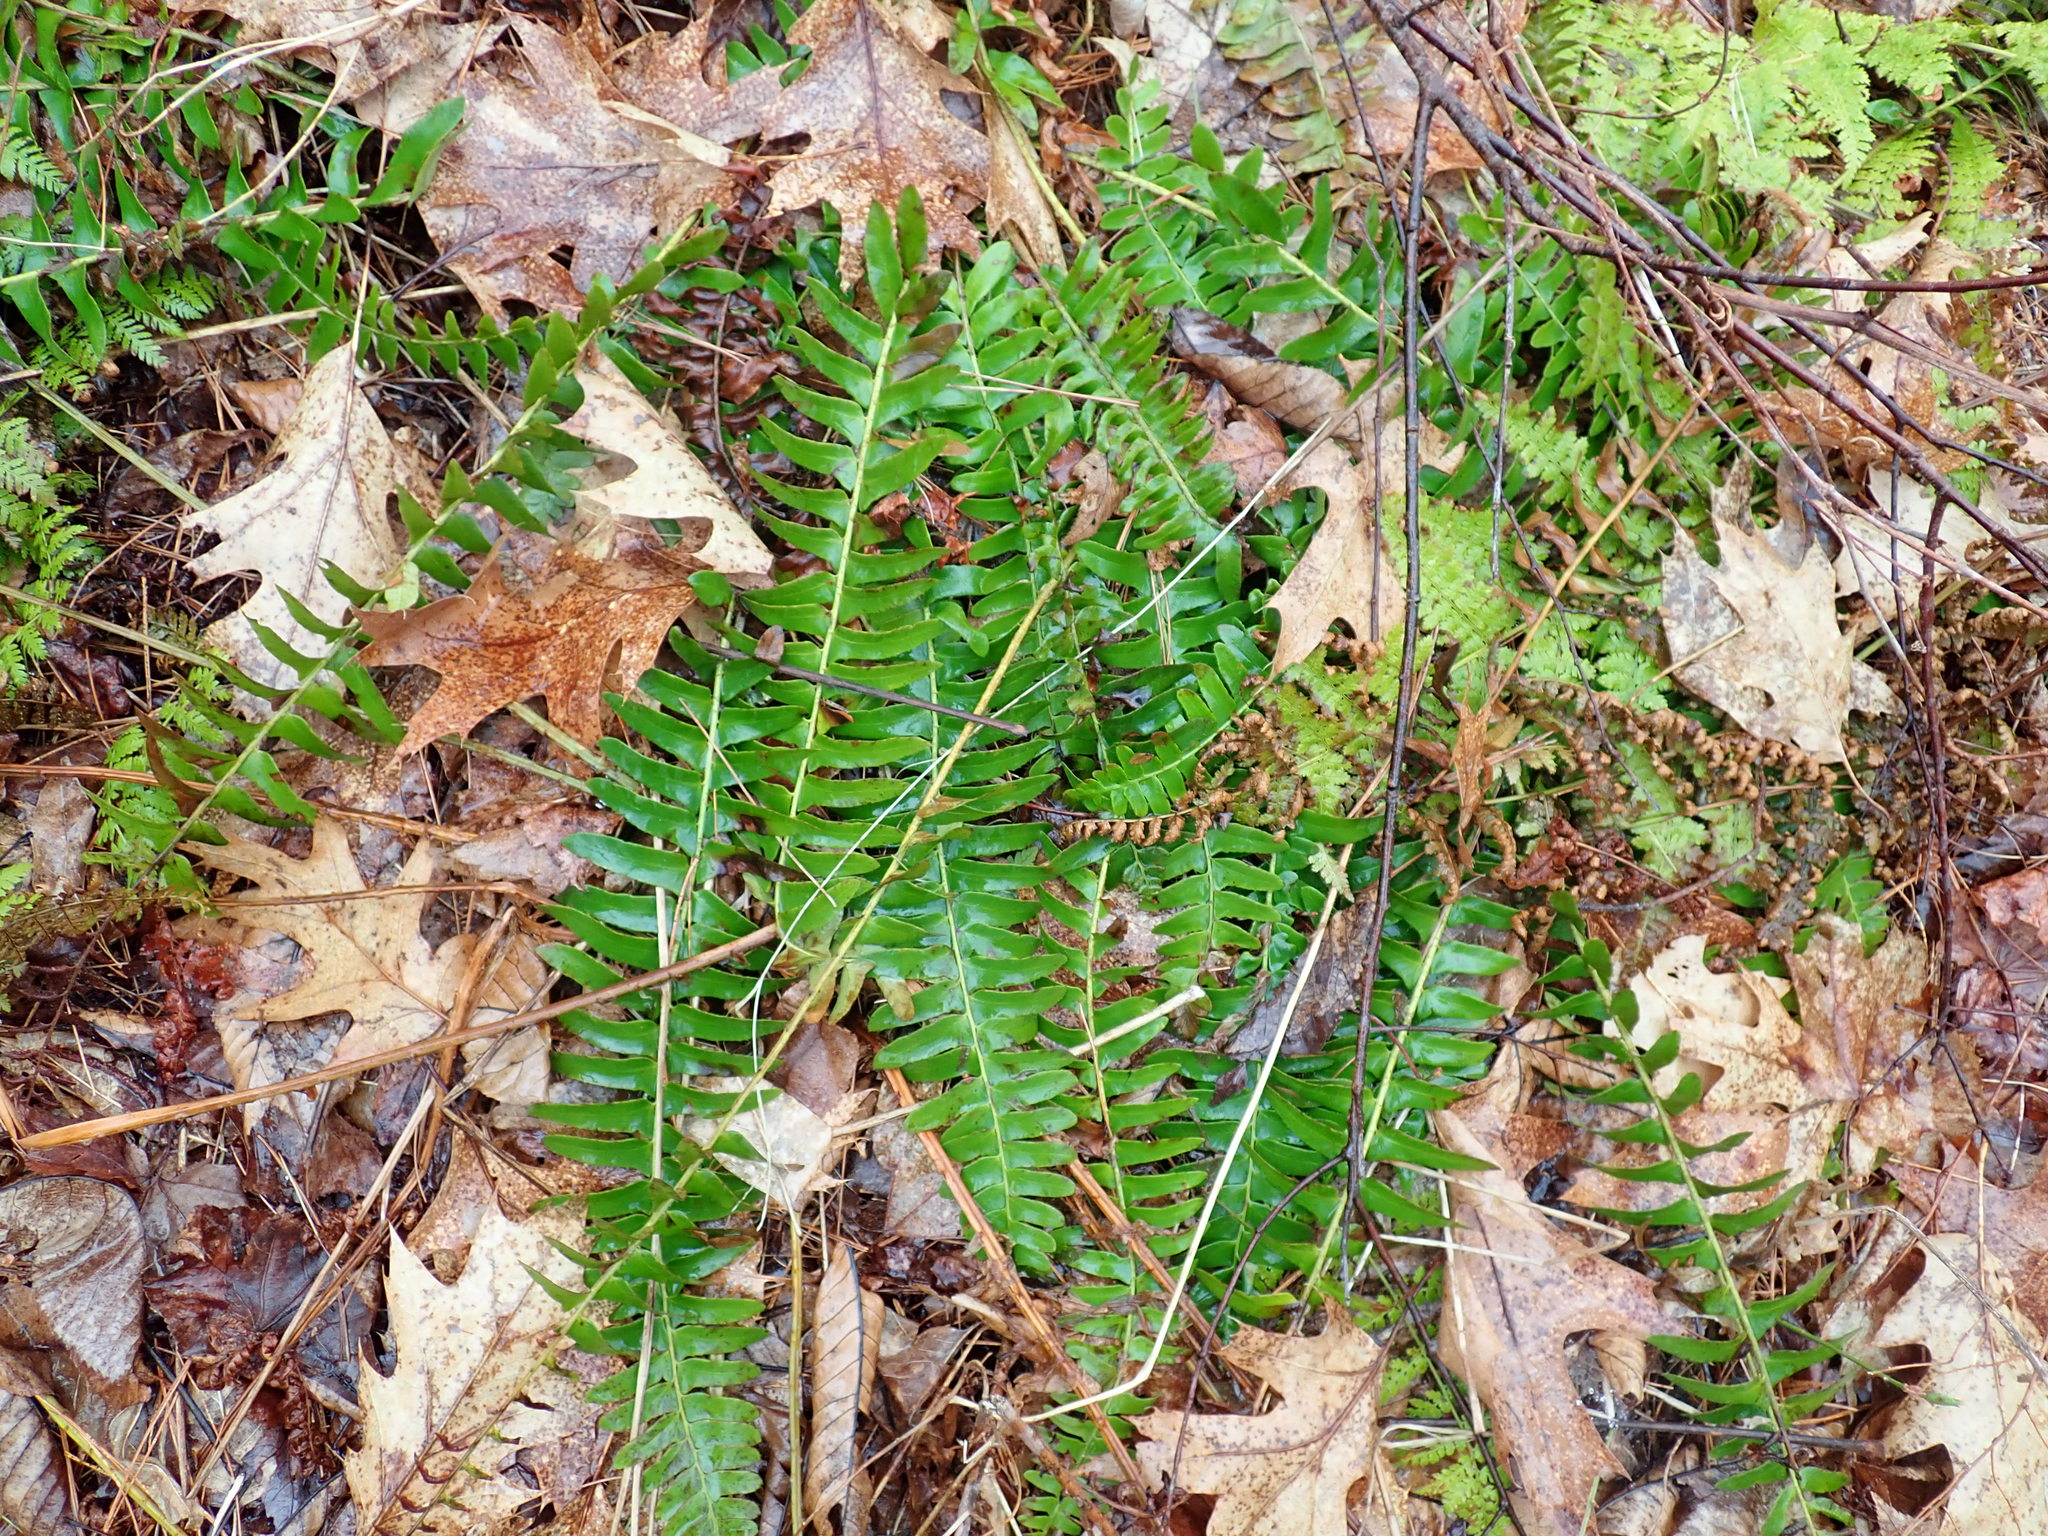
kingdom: Plantae
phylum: Tracheophyta
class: Polypodiopsida
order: Polypodiales
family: Dryopteridaceae
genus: Polystichum
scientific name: Polystichum acrostichoides
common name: Christmas fern
